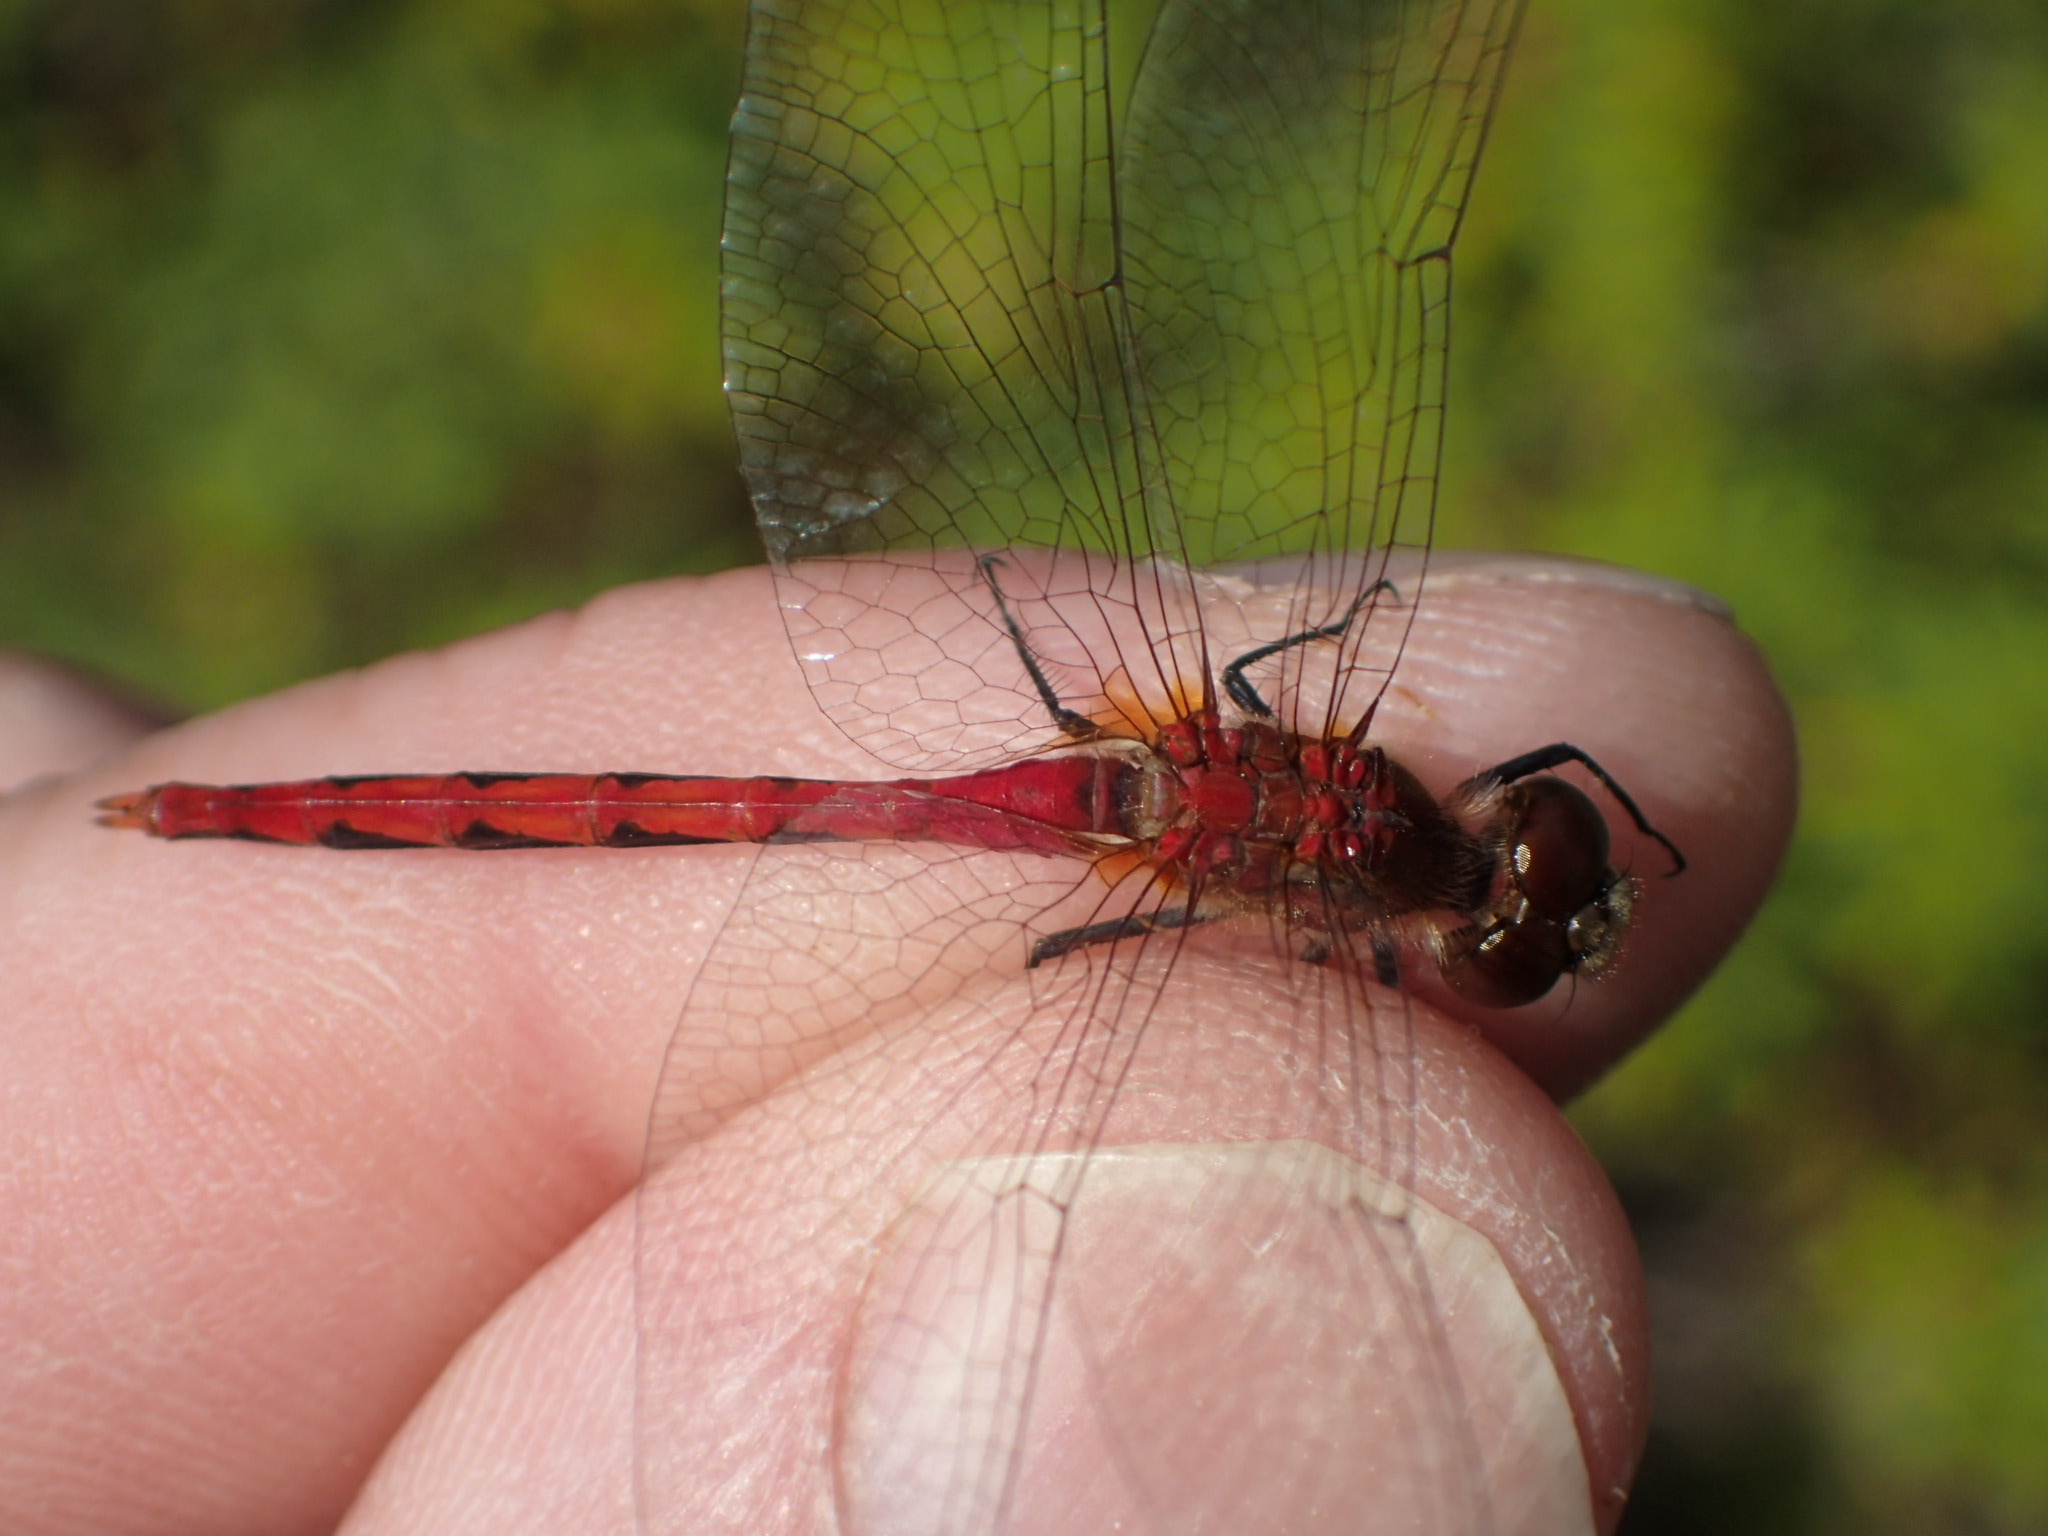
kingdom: Animalia
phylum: Arthropoda
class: Insecta
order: Odonata
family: Libellulidae
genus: Sympetrum
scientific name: Sympetrum obtrusum
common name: White-faced meadowhawk
